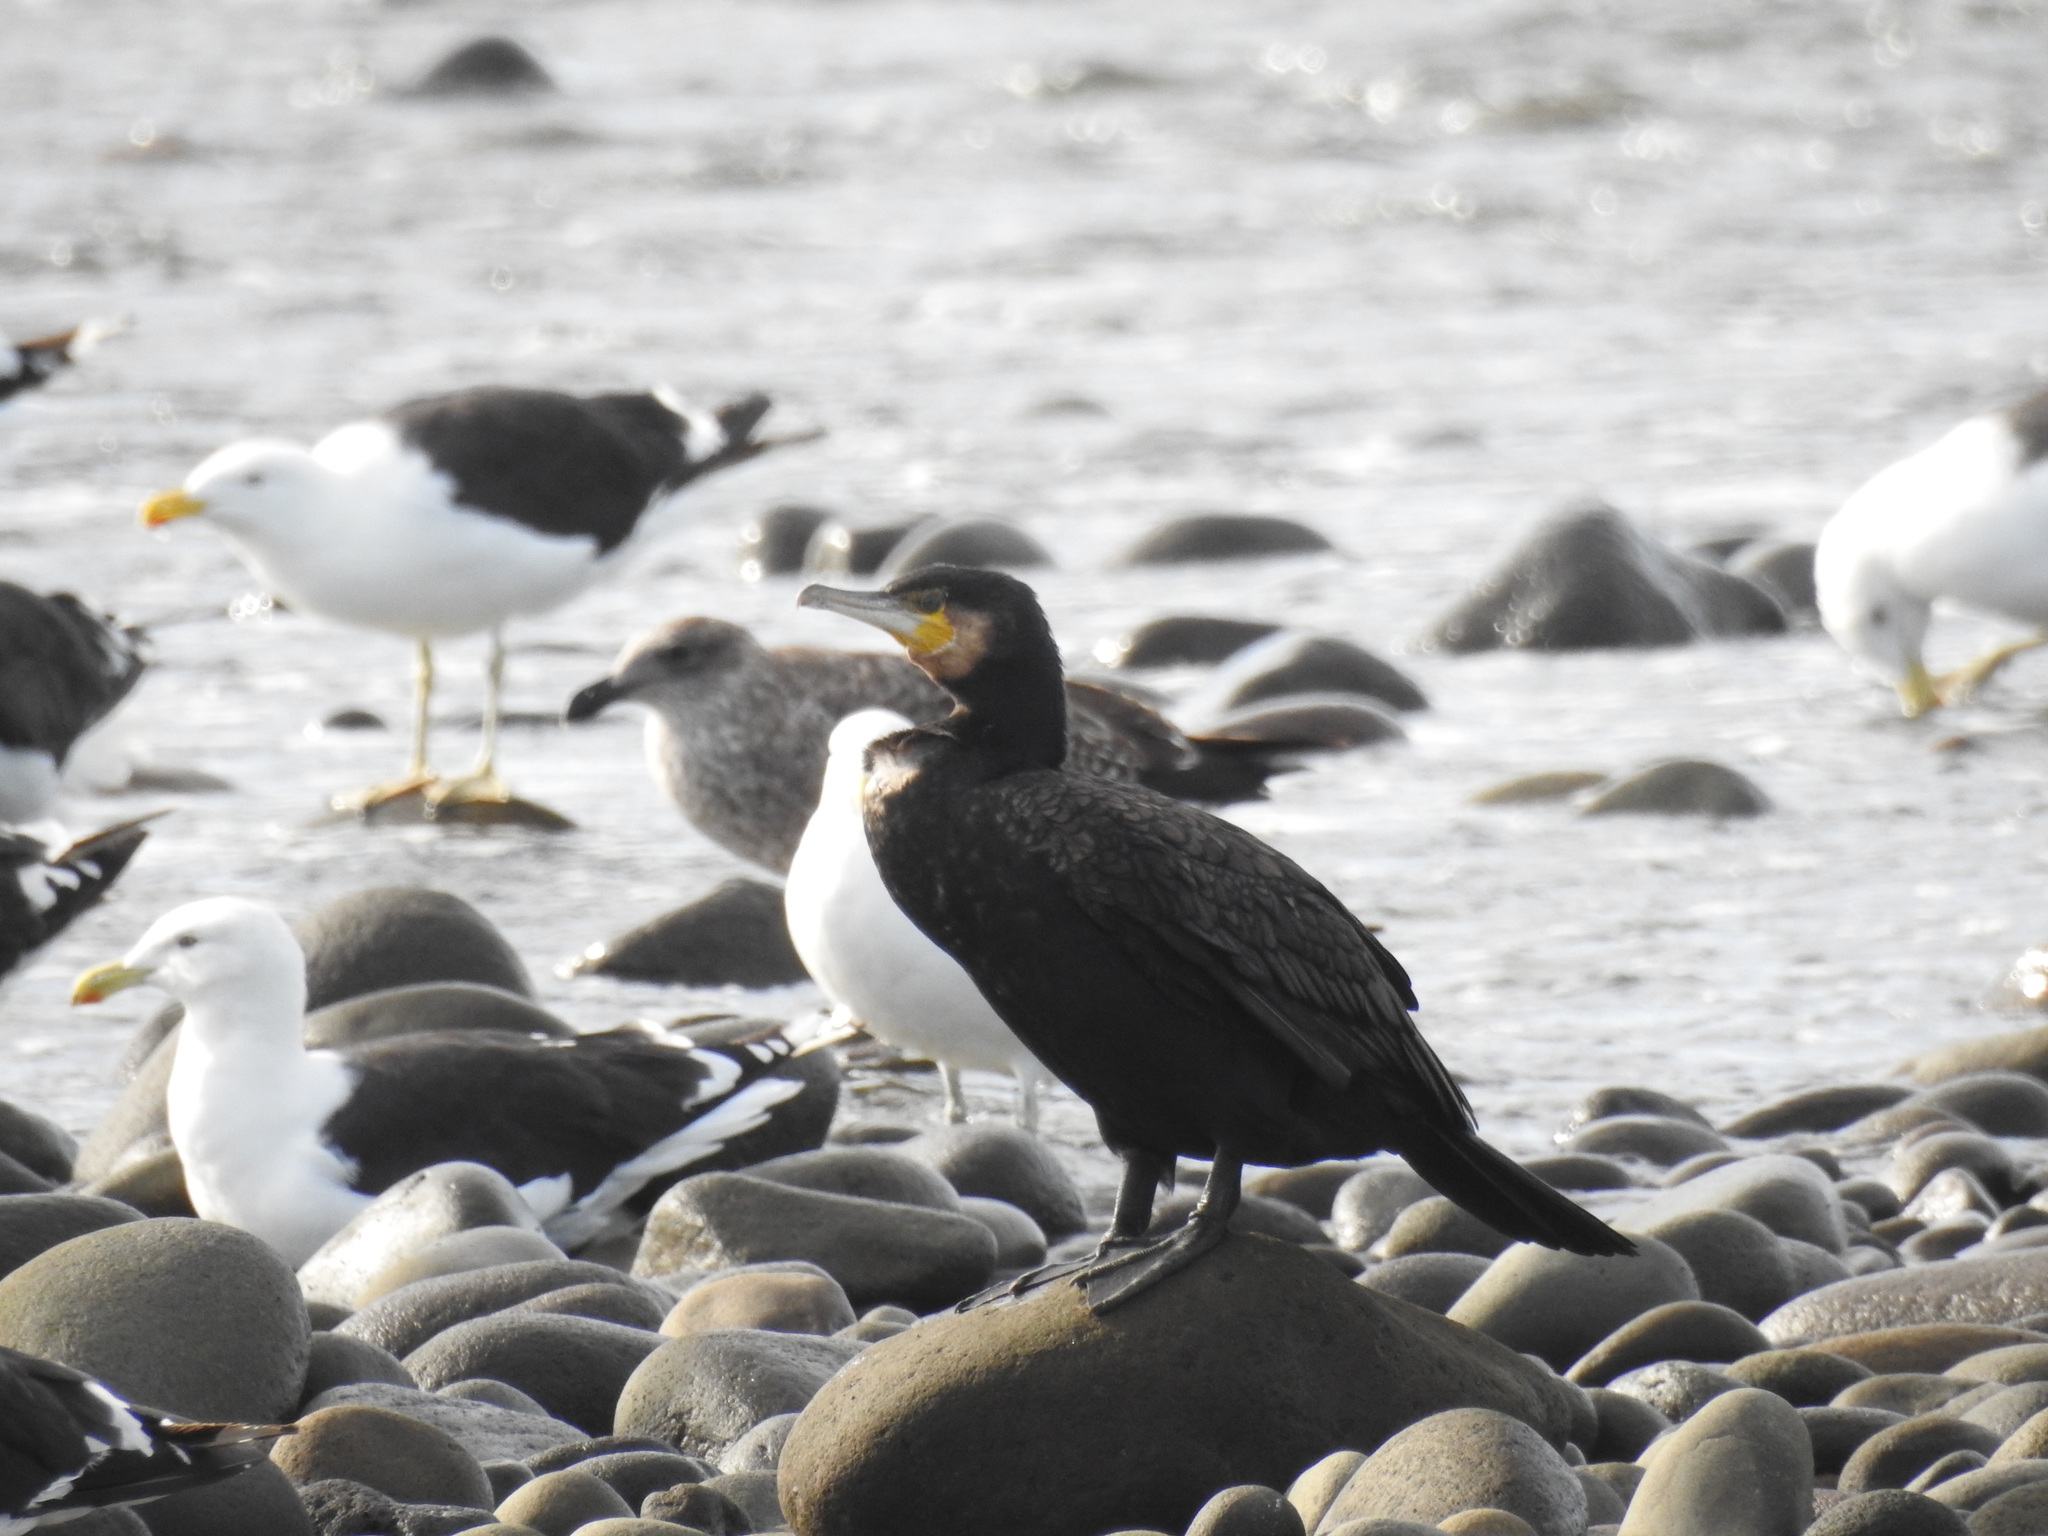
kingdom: Animalia
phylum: Chordata
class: Aves
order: Suliformes
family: Phalacrocoracidae
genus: Phalacrocorax
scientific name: Phalacrocorax carbo
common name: Great cormorant
